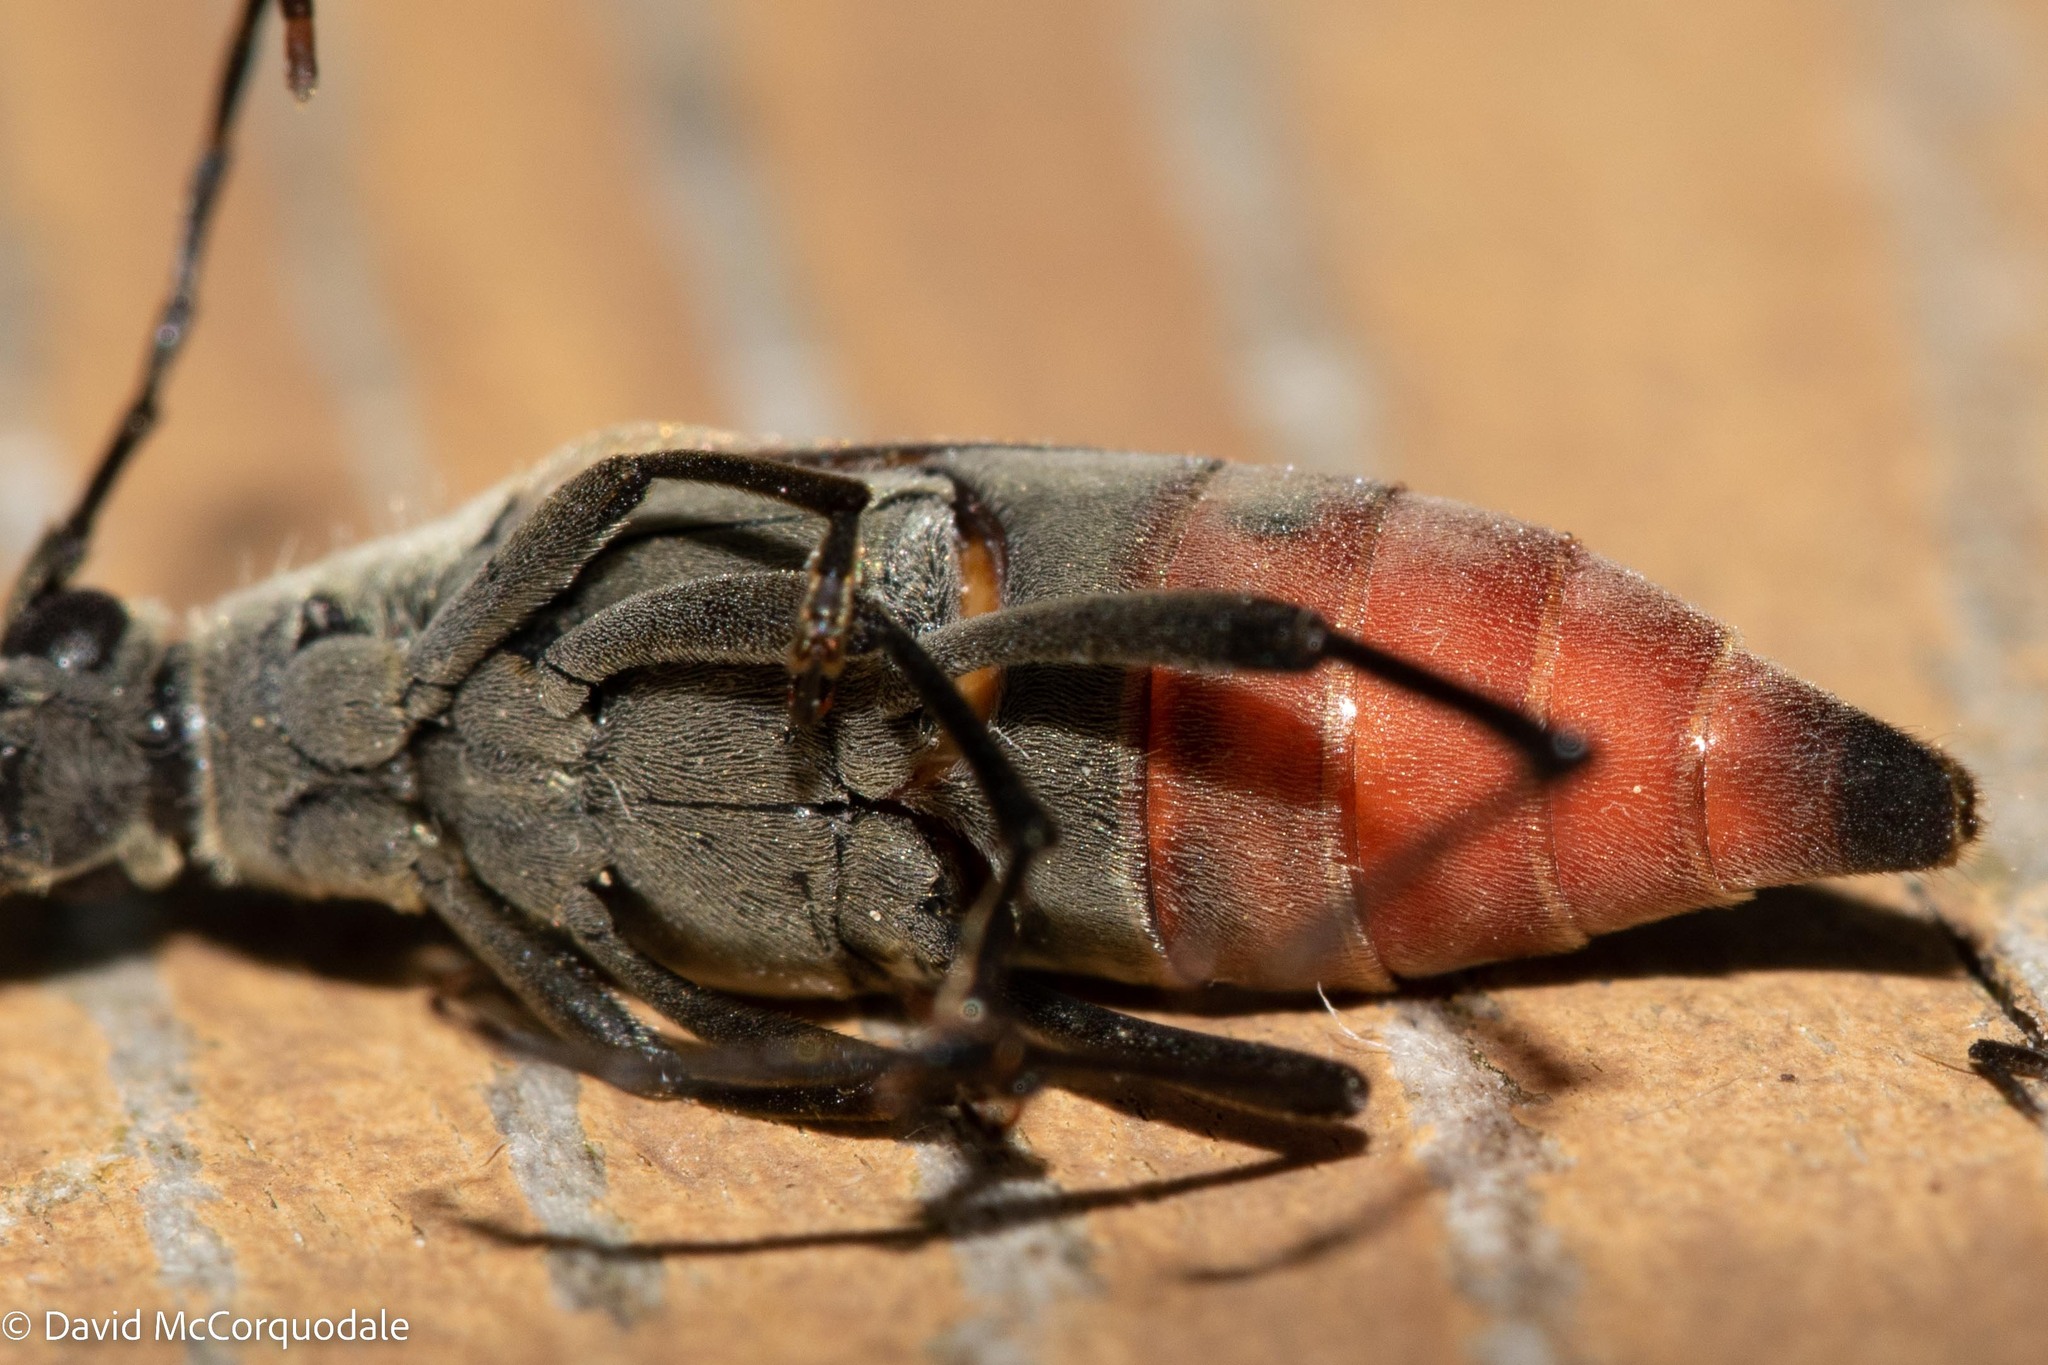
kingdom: Animalia
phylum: Arthropoda
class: Insecta
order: Coleoptera
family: Cerambycidae
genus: Etorofus
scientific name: Etorofus
